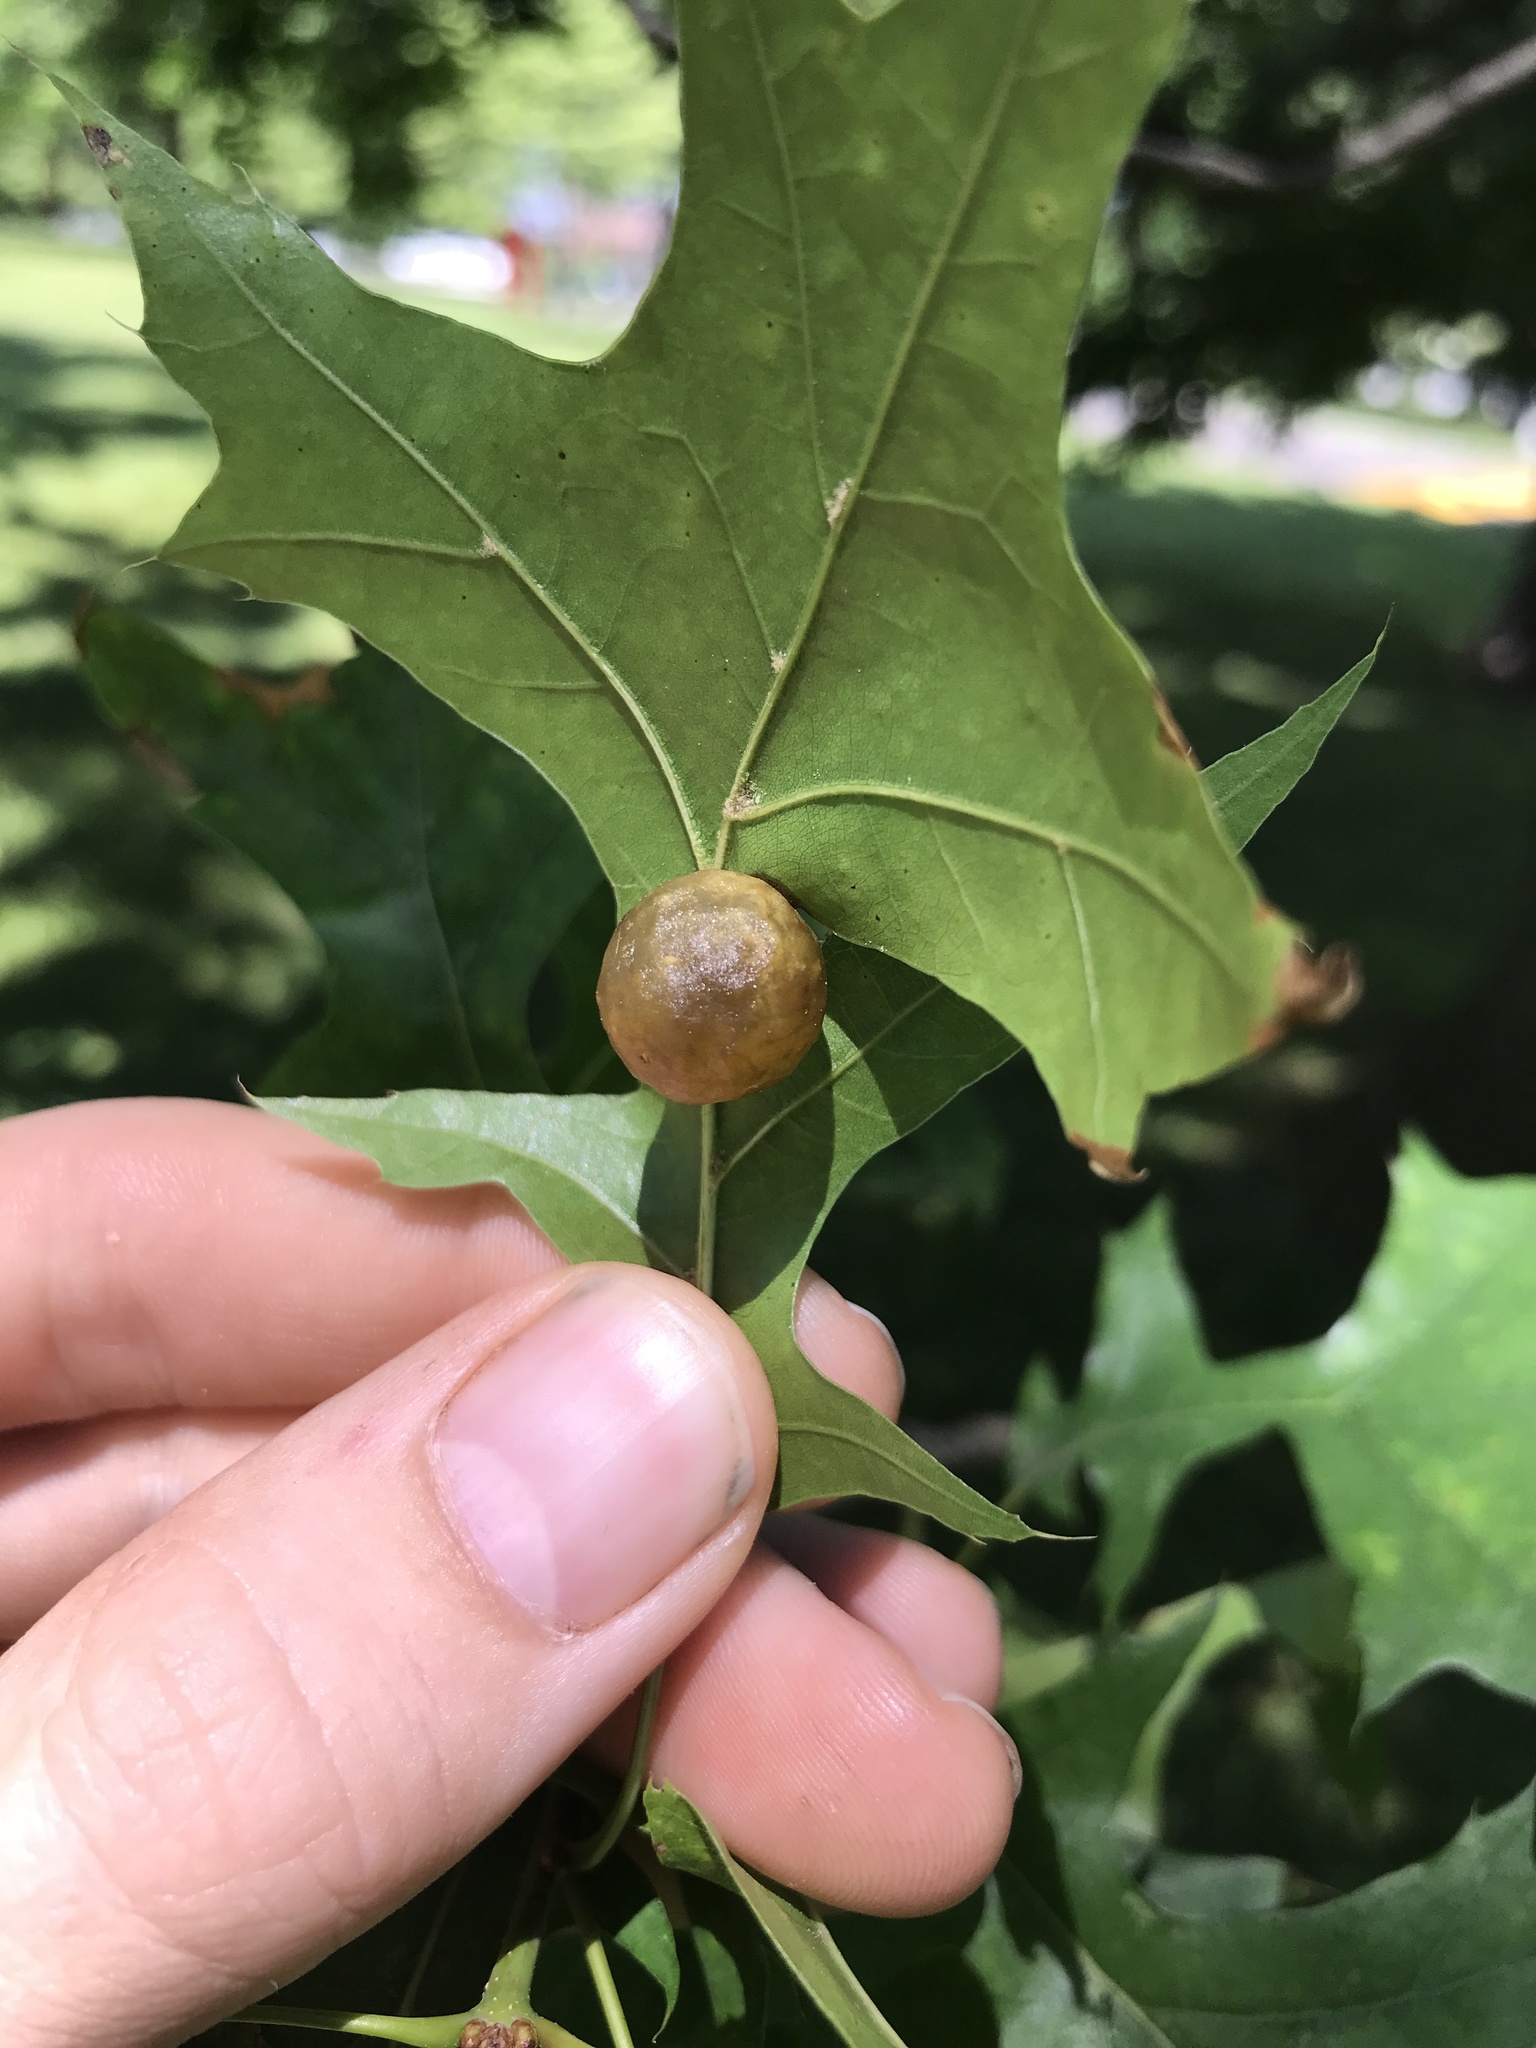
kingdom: Animalia
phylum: Arthropoda
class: Insecta
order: Hymenoptera
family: Cynipidae
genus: Amphibolips
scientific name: Amphibolips
